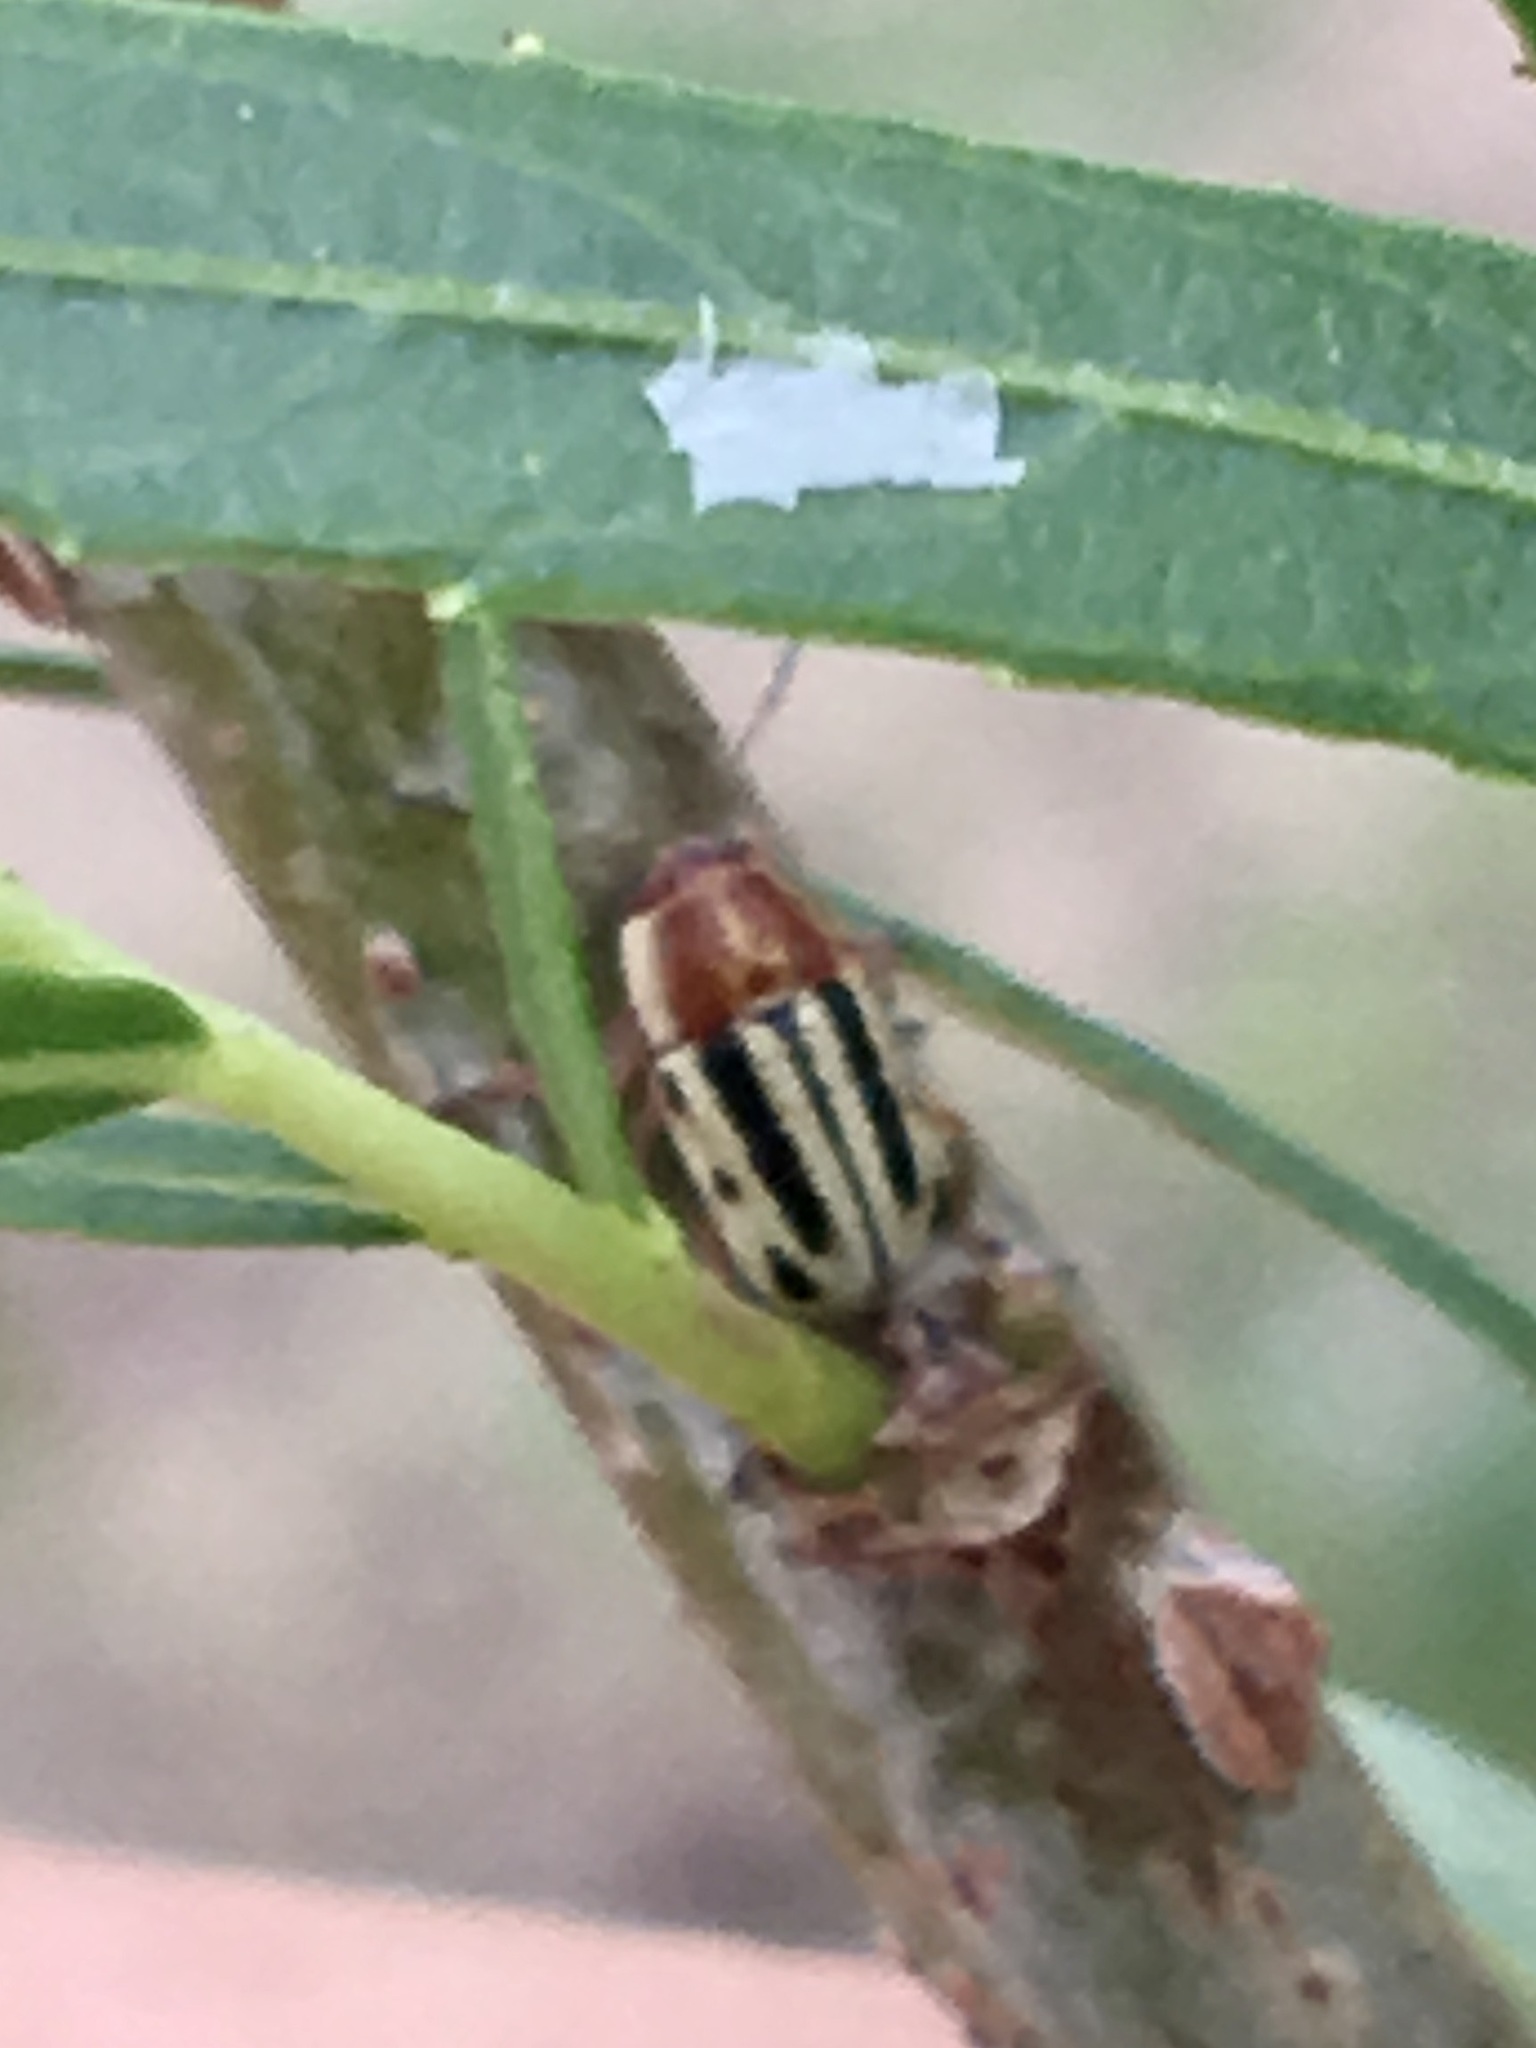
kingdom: Animalia
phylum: Arthropoda
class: Insecta
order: Coleoptera
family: Chrysomelidae
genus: Pachybrachis
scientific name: Pachybrachis bivittatus
